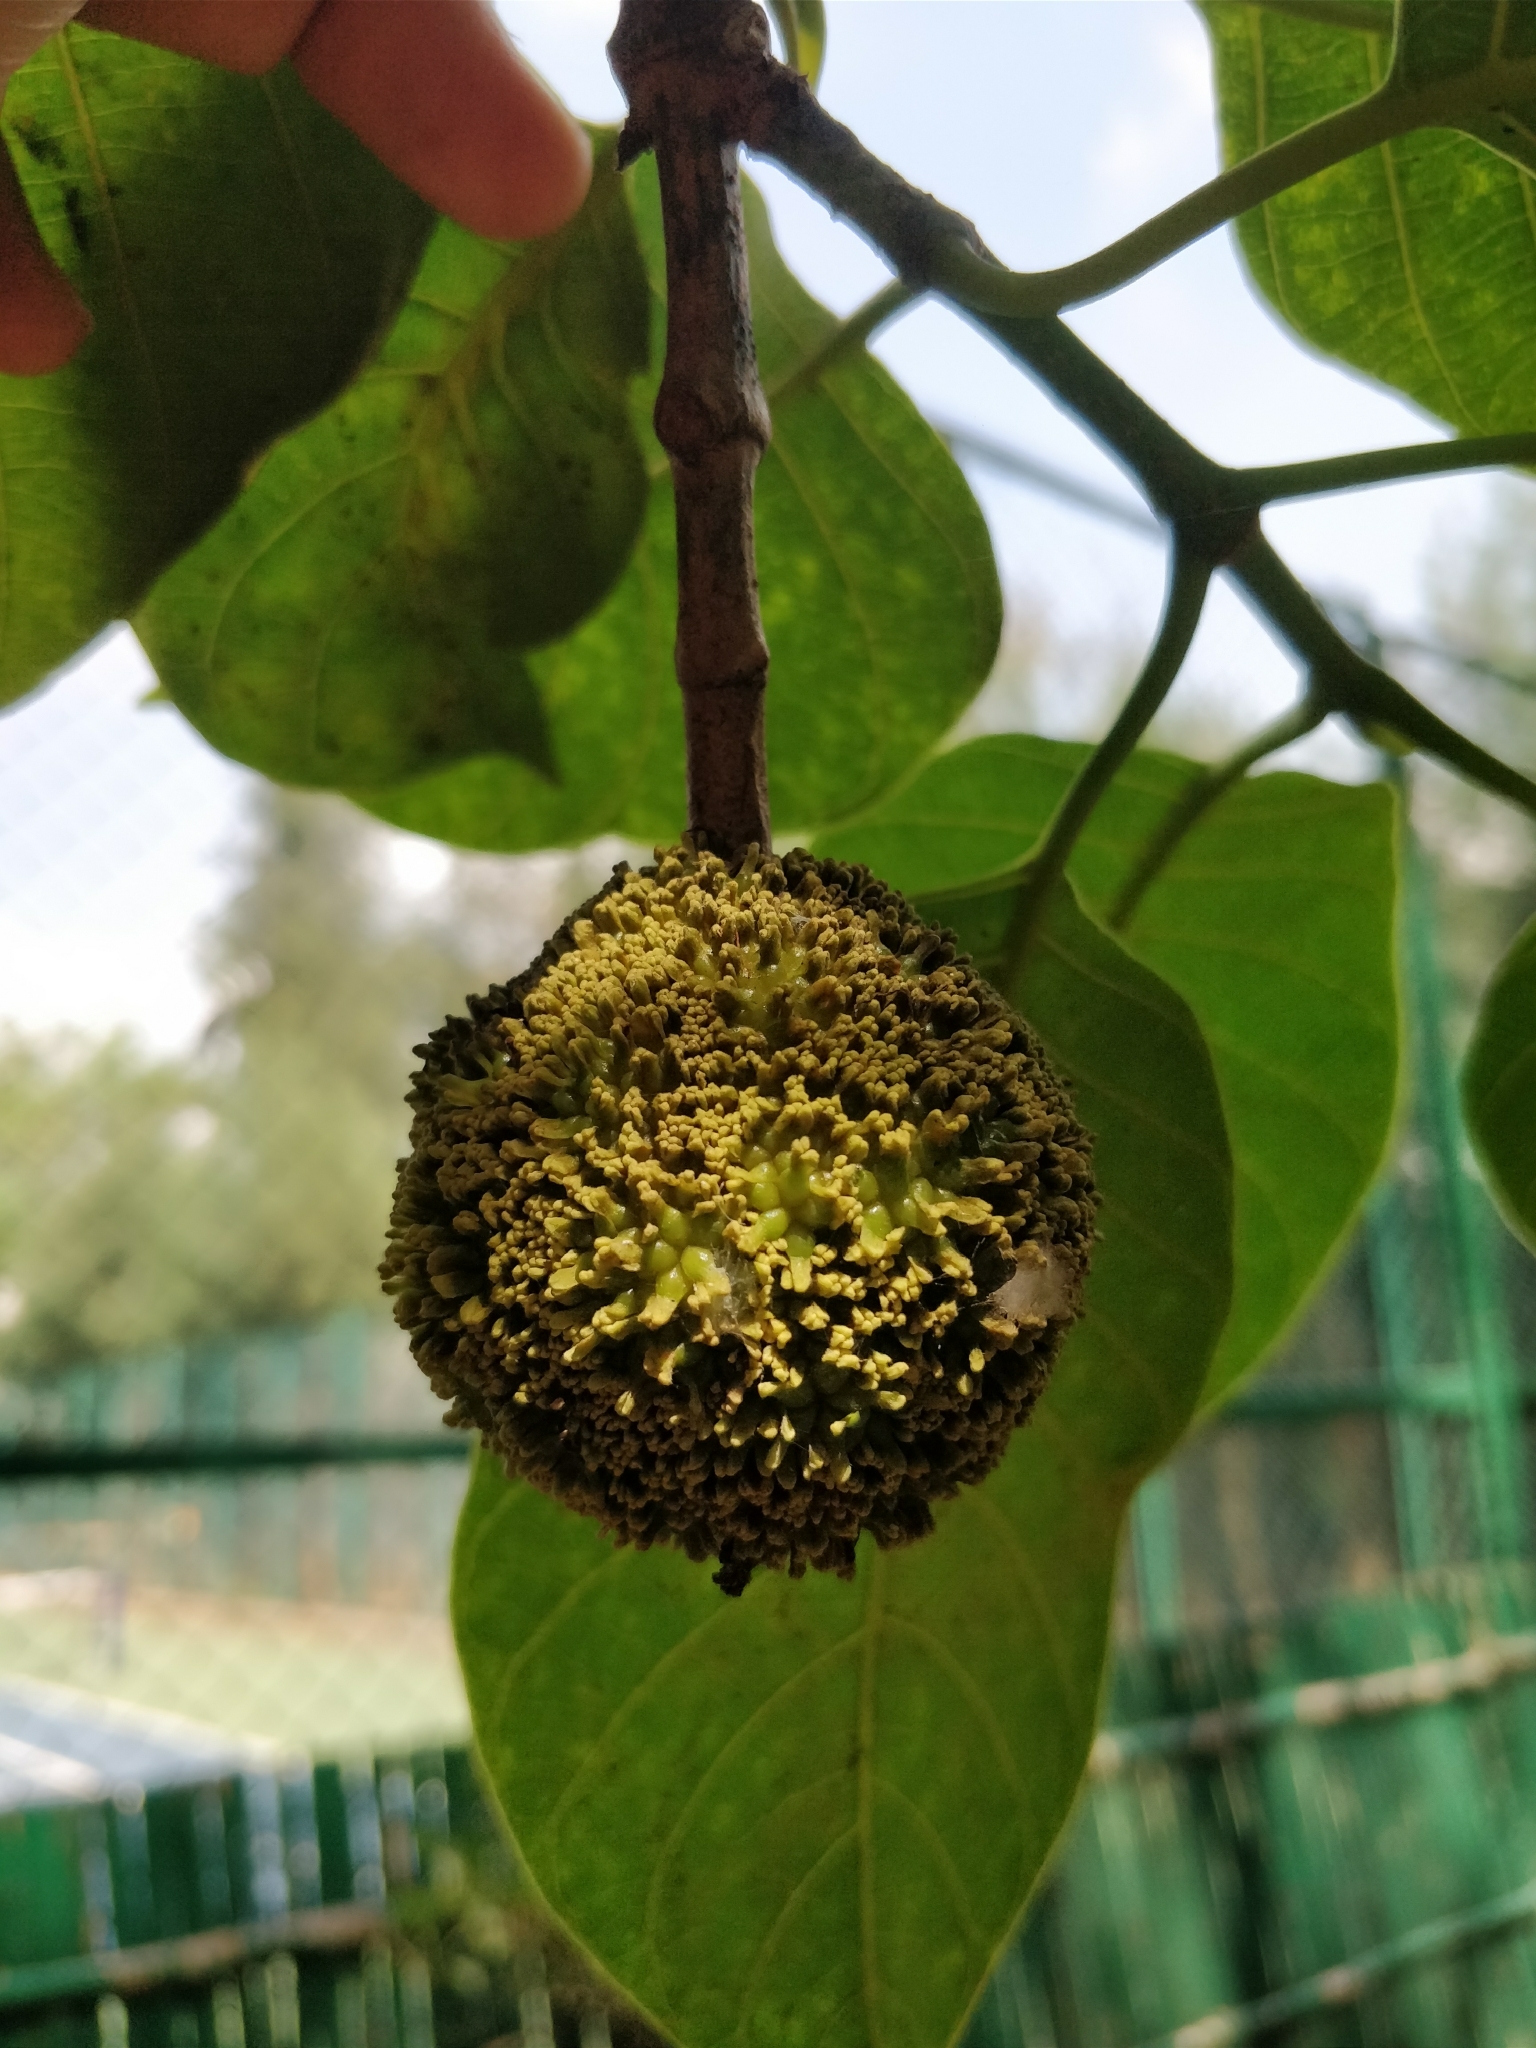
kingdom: Plantae
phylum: Tracheophyta
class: Magnoliopsida
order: Gentianales
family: Rubiaceae
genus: Neolamarckia
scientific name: Neolamarckia cadamba
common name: Leichhardt-pine
